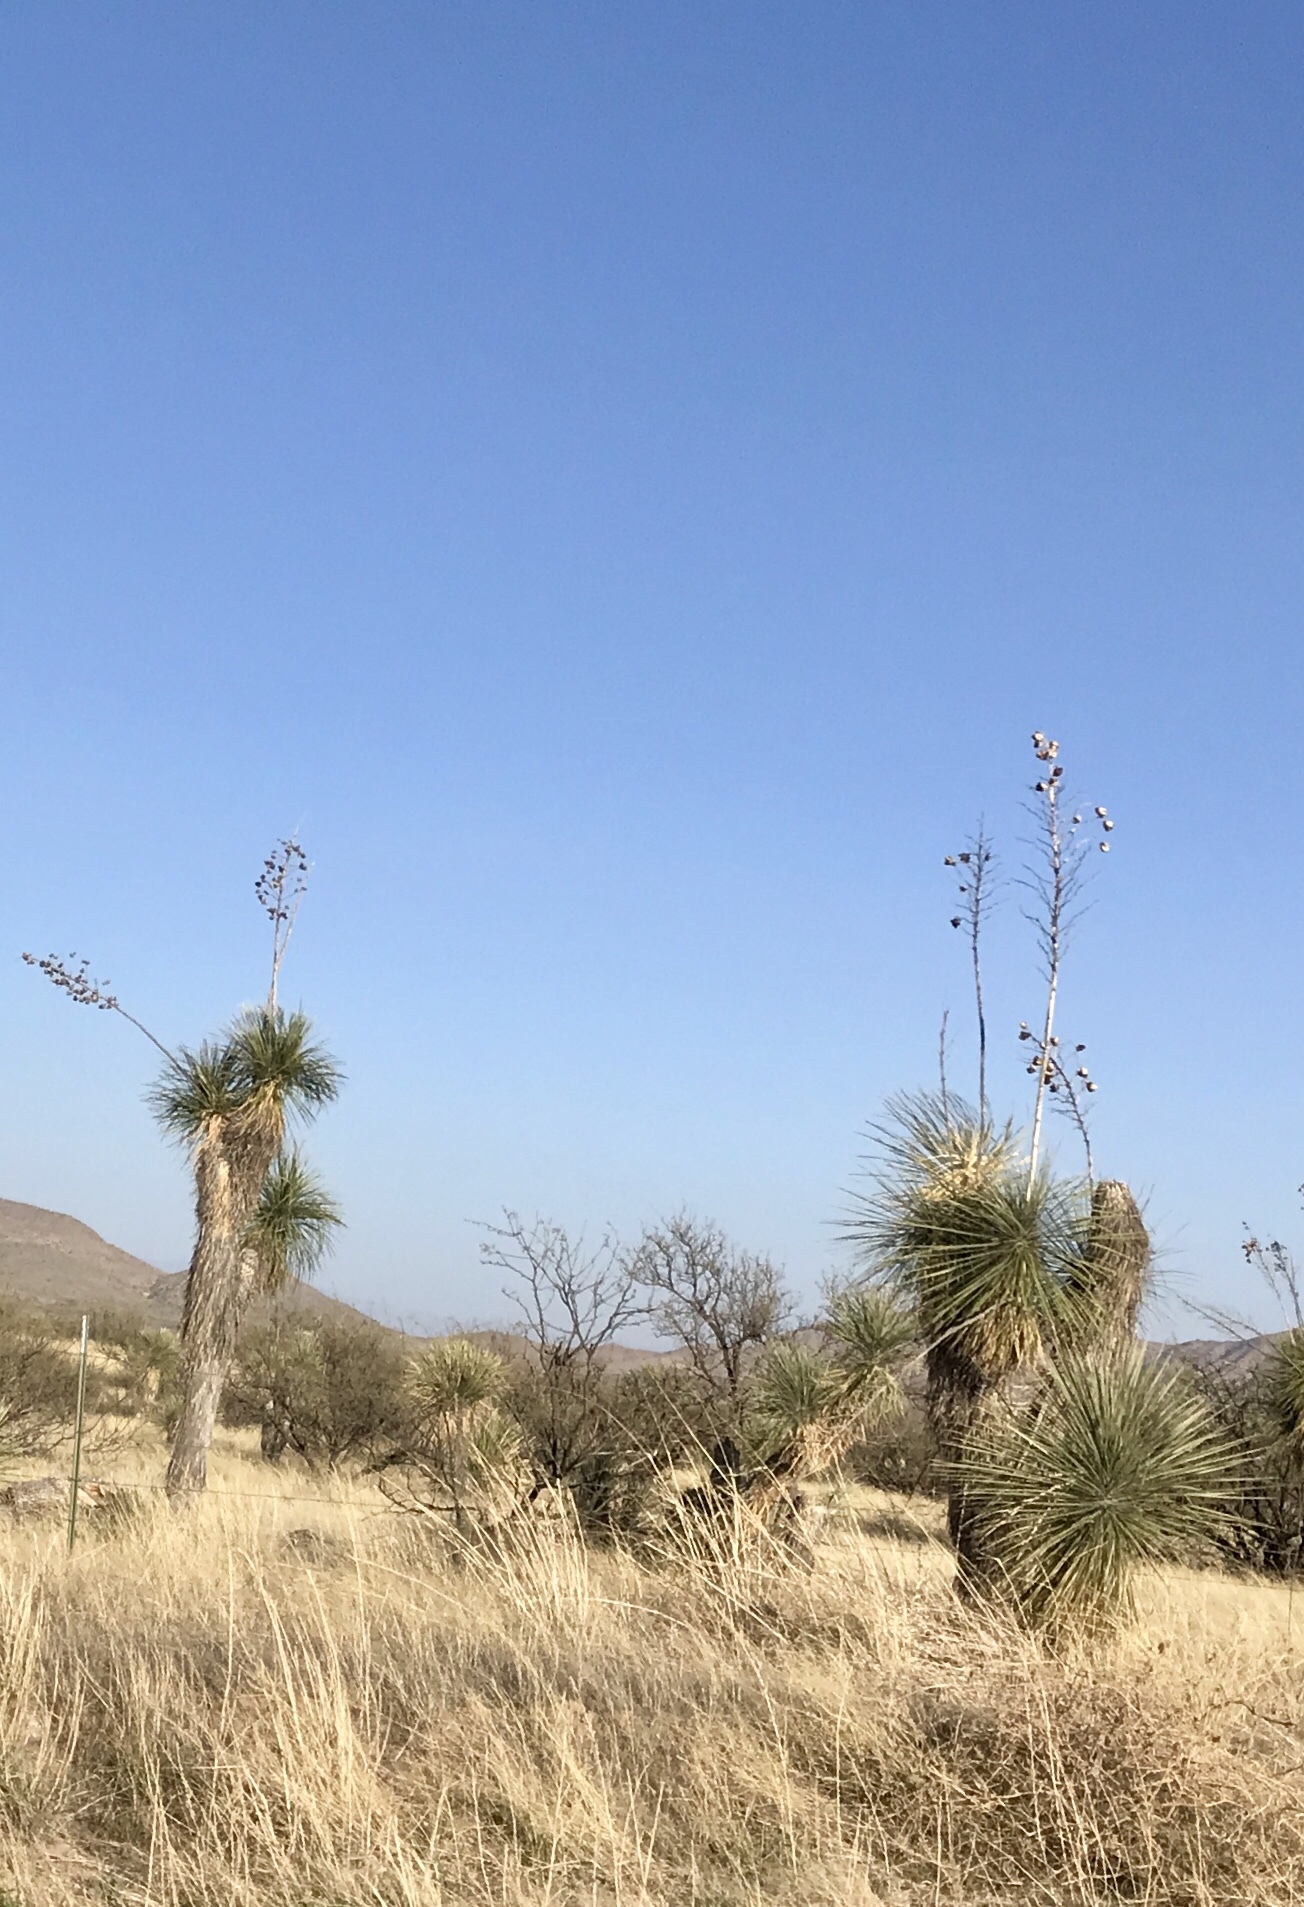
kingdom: Plantae
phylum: Tracheophyta
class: Liliopsida
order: Asparagales
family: Asparagaceae
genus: Yucca
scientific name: Yucca elata
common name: Palmella
